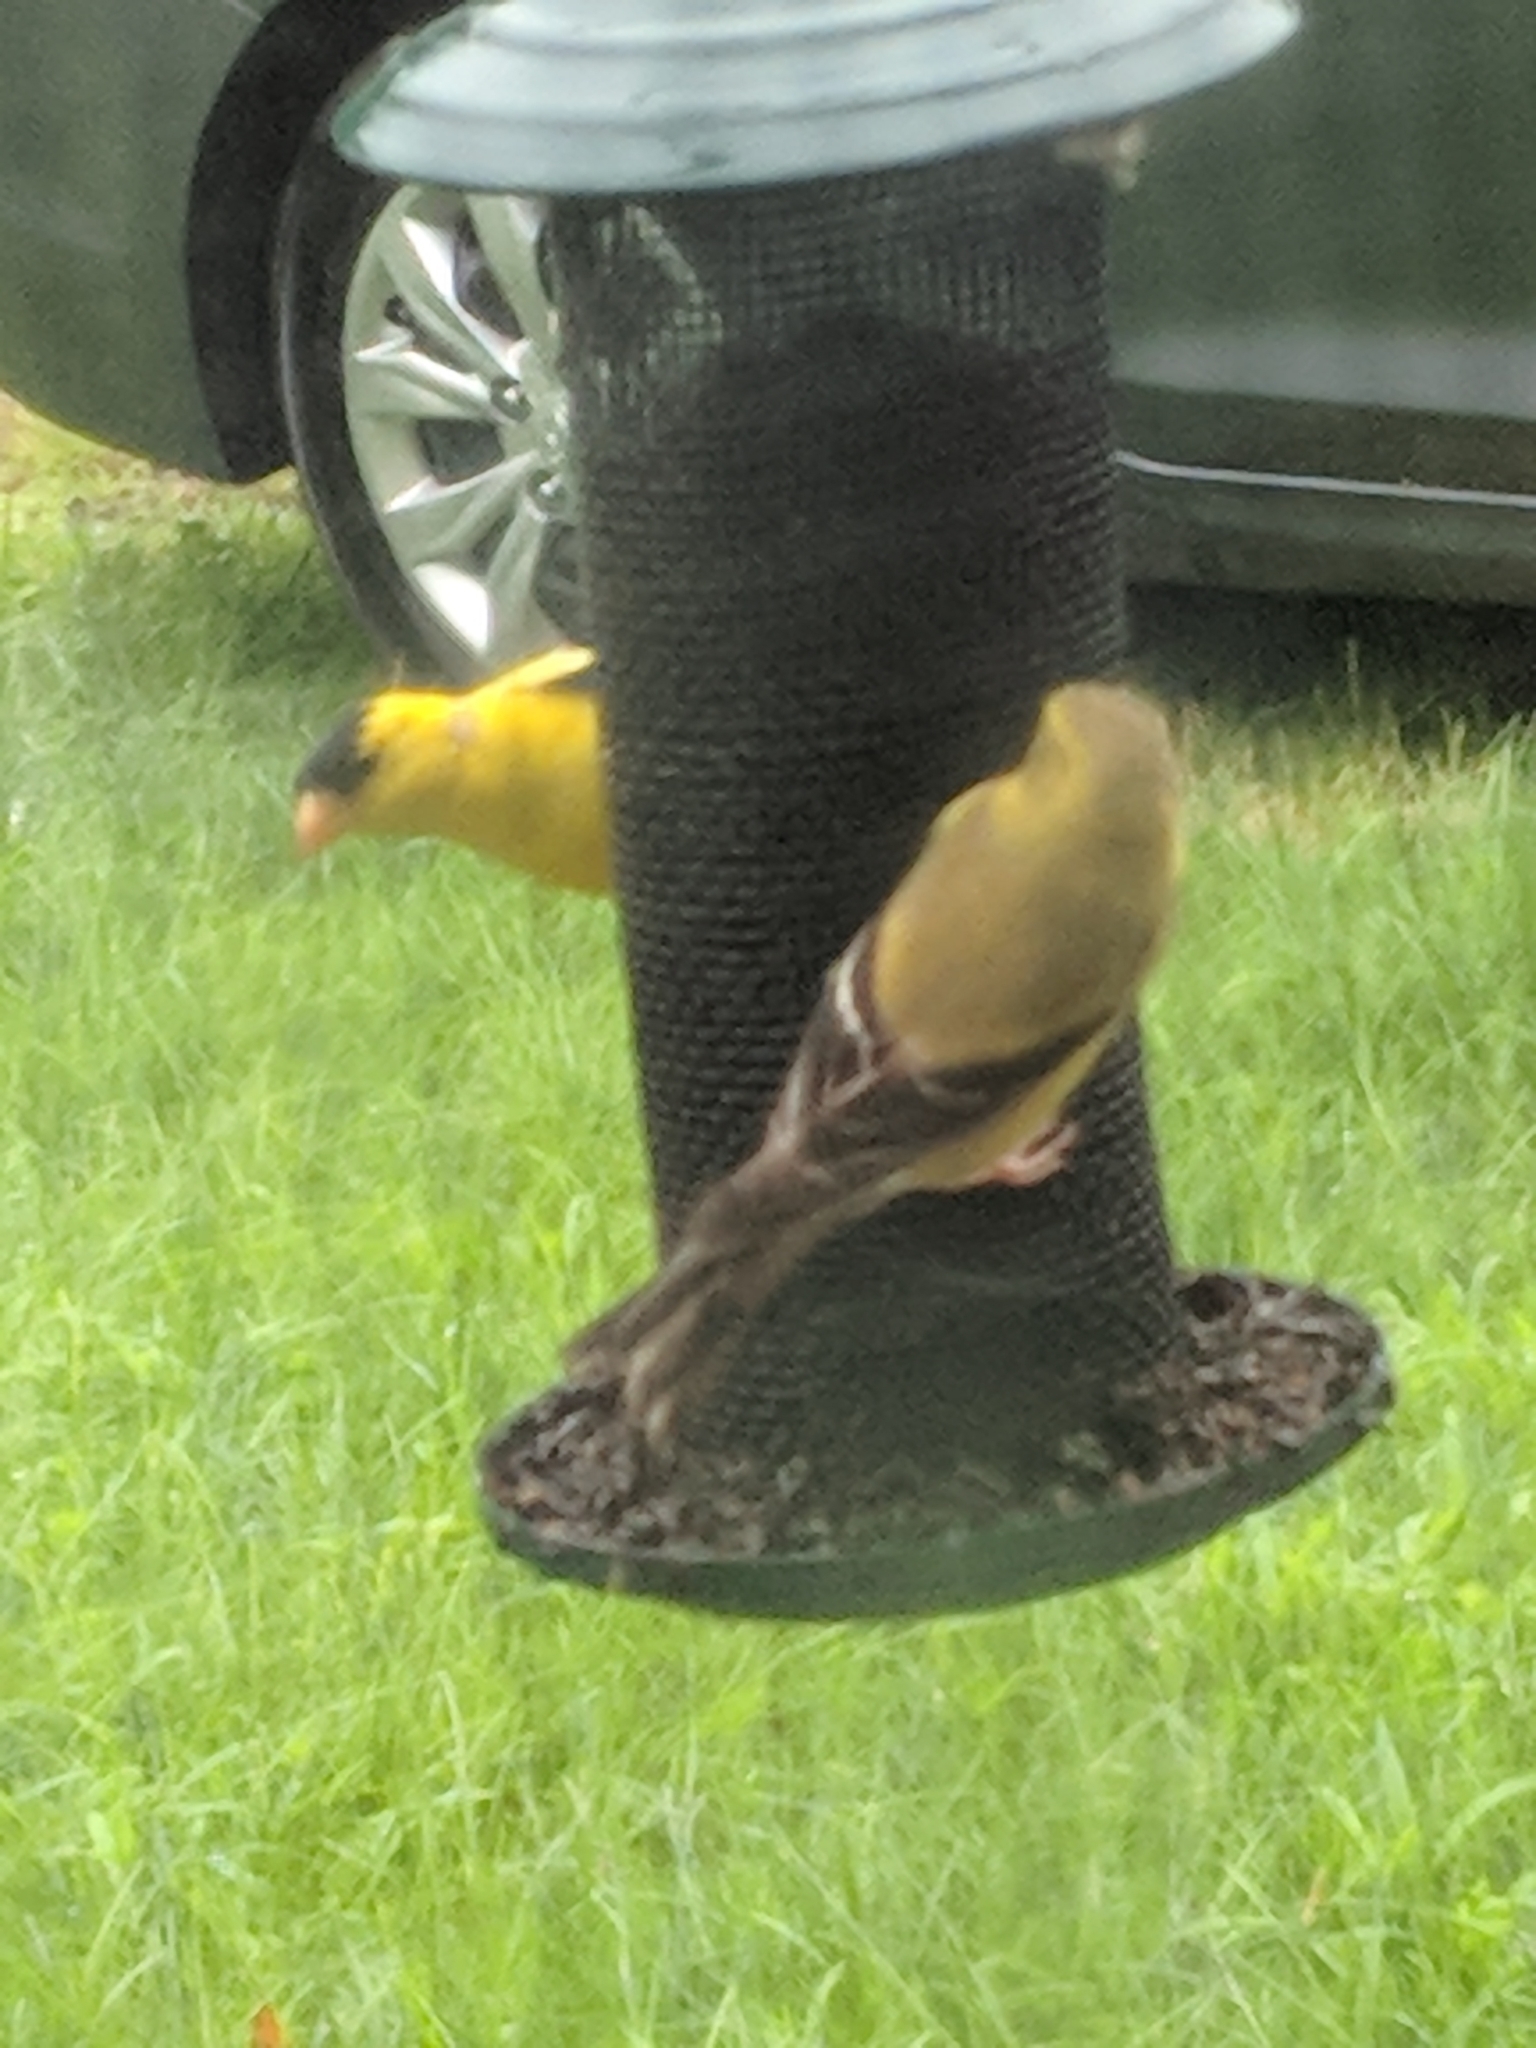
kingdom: Animalia
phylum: Chordata
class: Aves
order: Passeriformes
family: Fringillidae
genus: Spinus
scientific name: Spinus tristis
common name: American goldfinch
